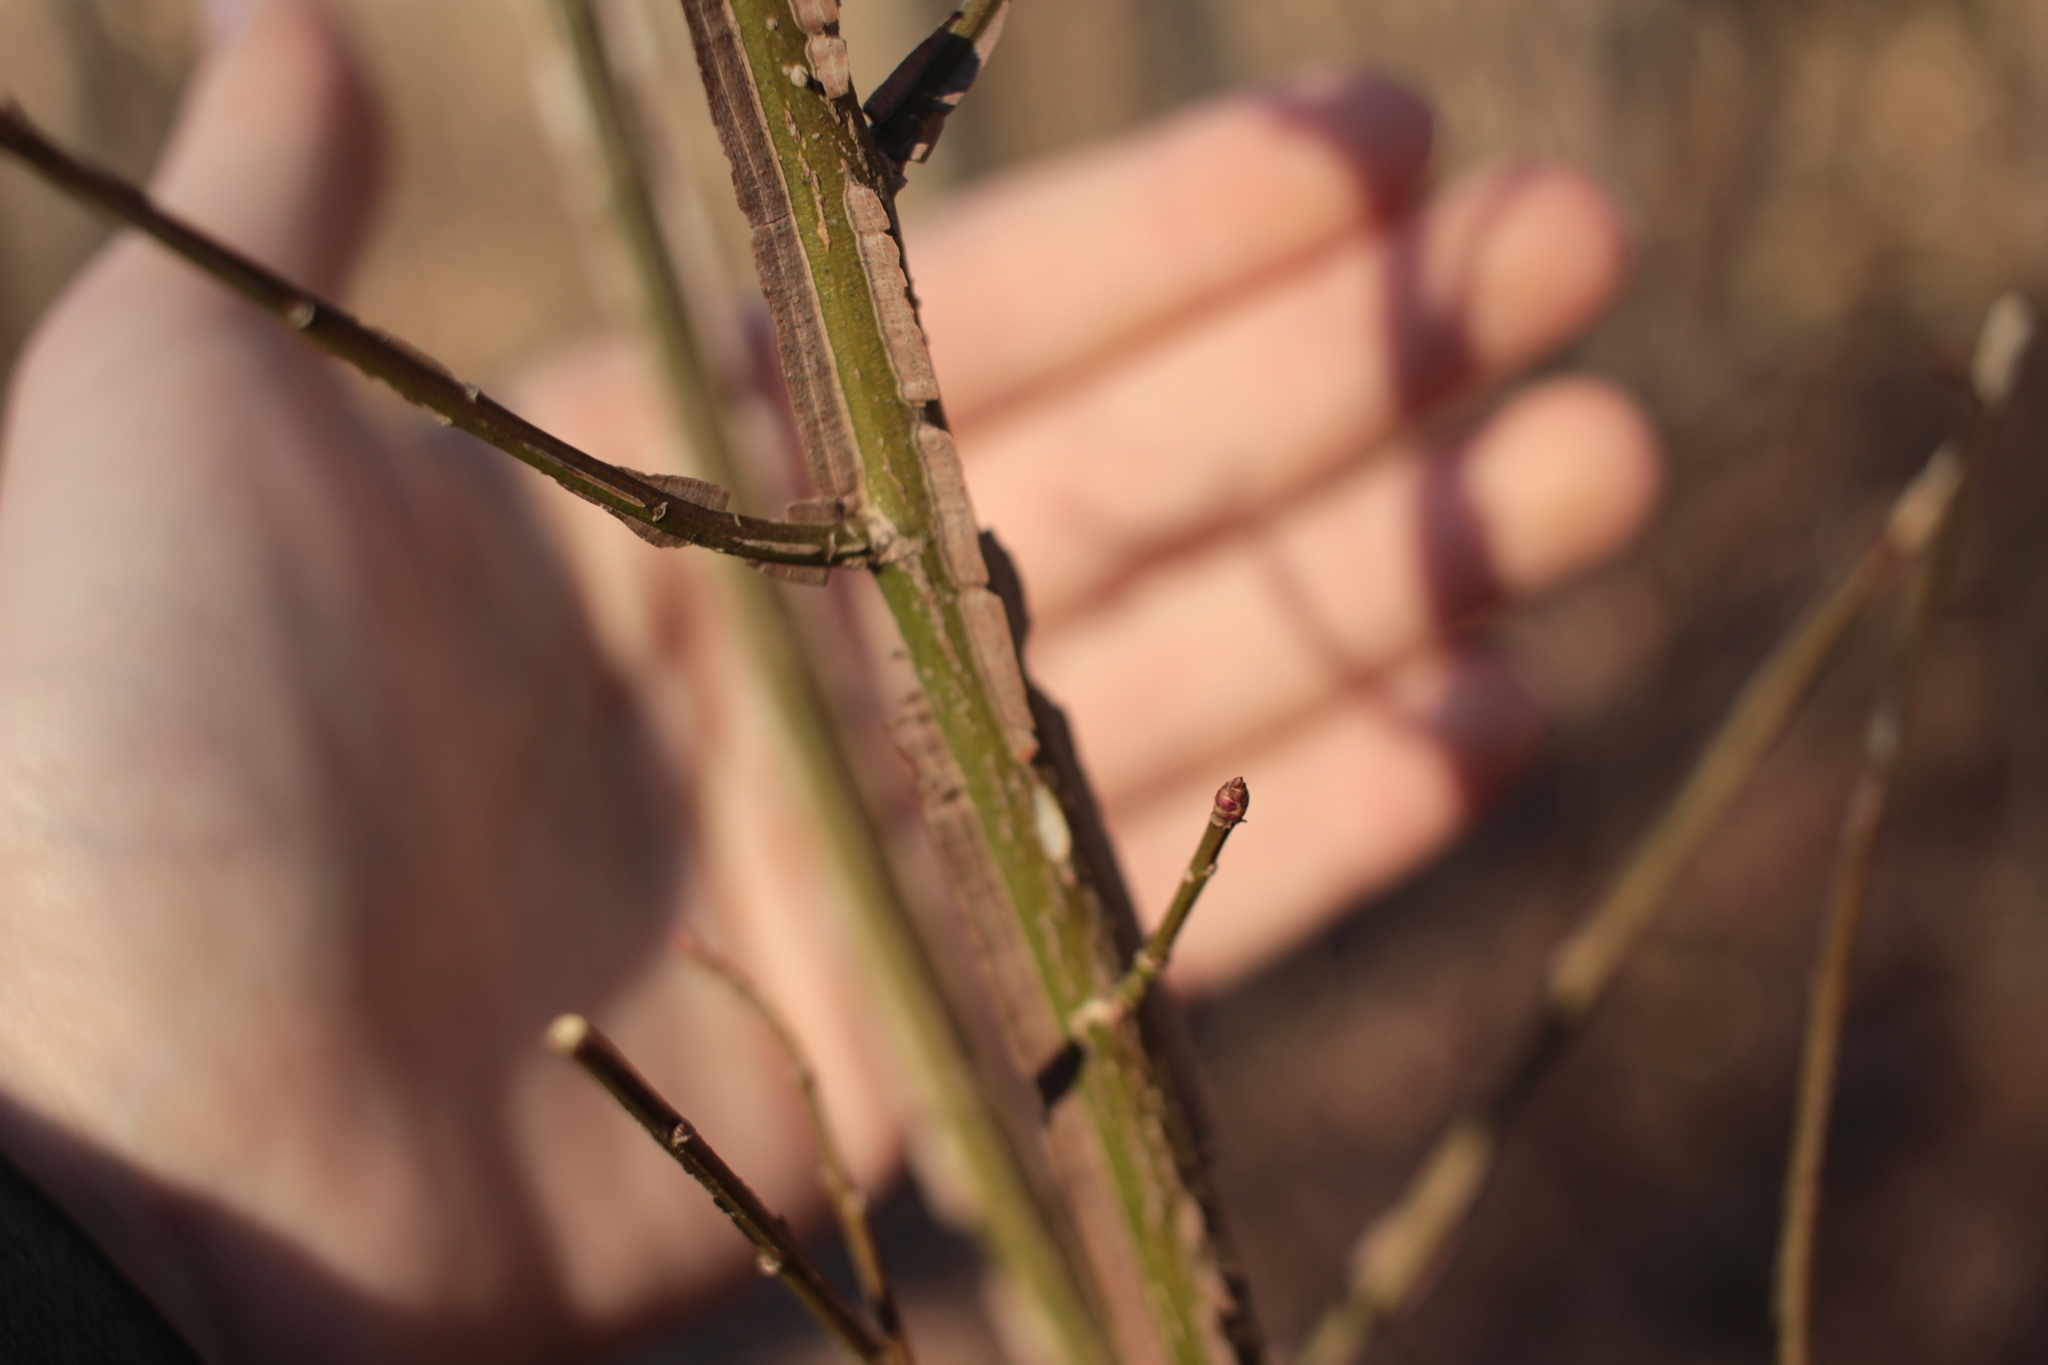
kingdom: Plantae
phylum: Tracheophyta
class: Magnoliopsida
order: Celastrales
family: Celastraceae
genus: Euonymus
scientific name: Euonymus alatus
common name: Winged euonymus
